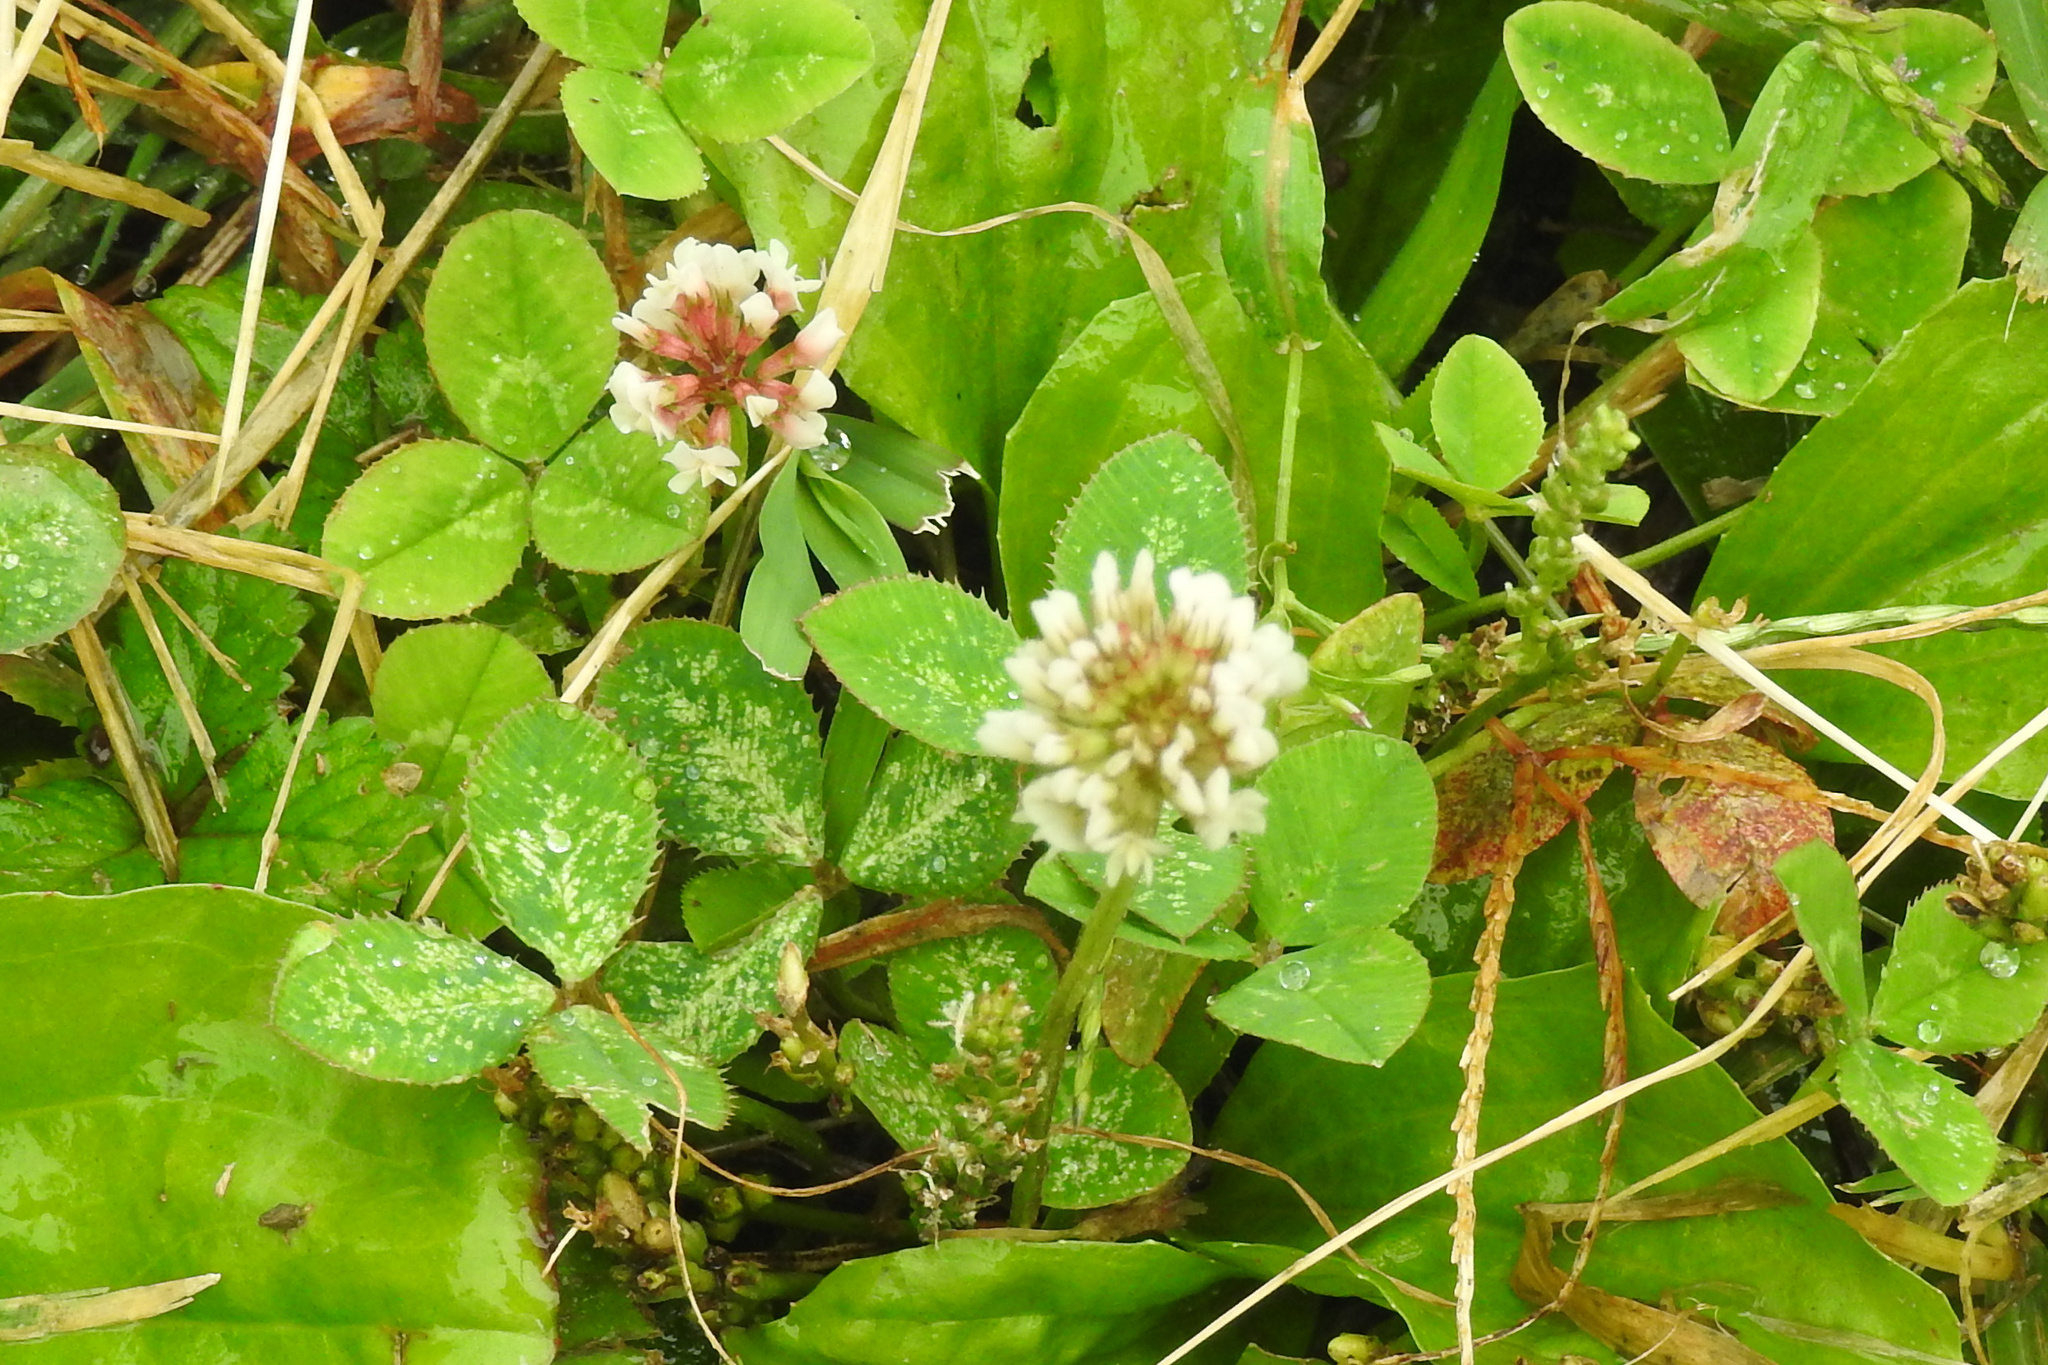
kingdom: Plantae
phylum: Tracheophyta
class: Magnoliopsida
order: Fabales
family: Fabaceae
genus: Trifolium
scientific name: Trifolium repens
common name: White clover
